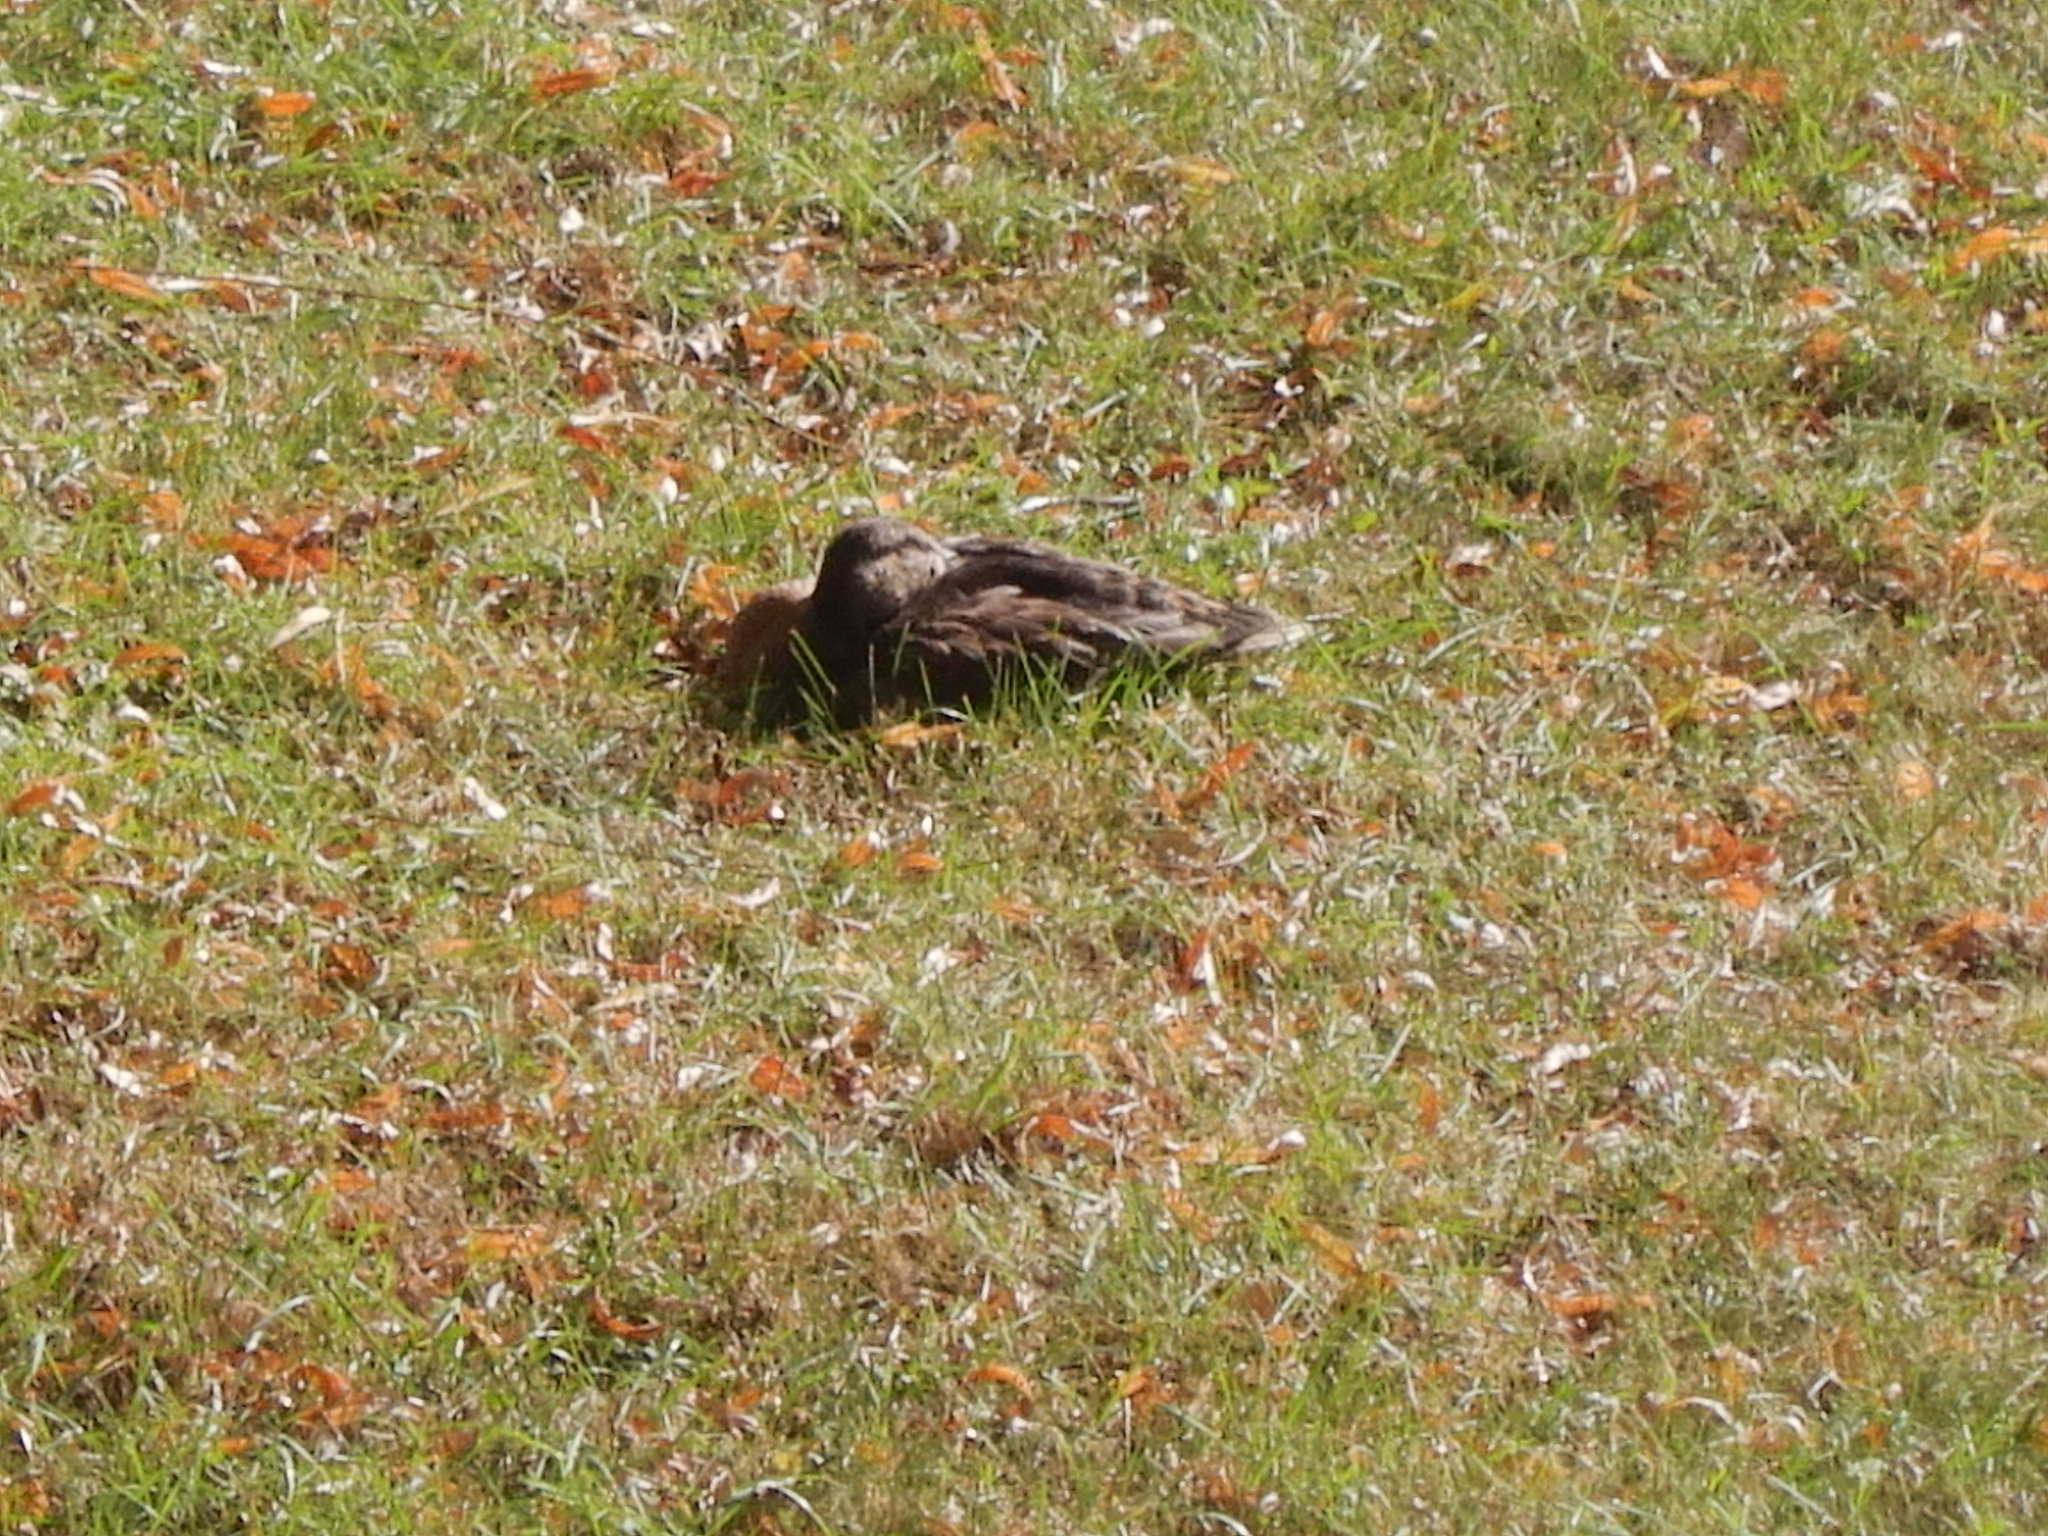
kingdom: Animalia
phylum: Chordata
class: Aves
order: Anseriformes
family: Anatidae
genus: Anas
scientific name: Anas platyrhynchos
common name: Mallard
